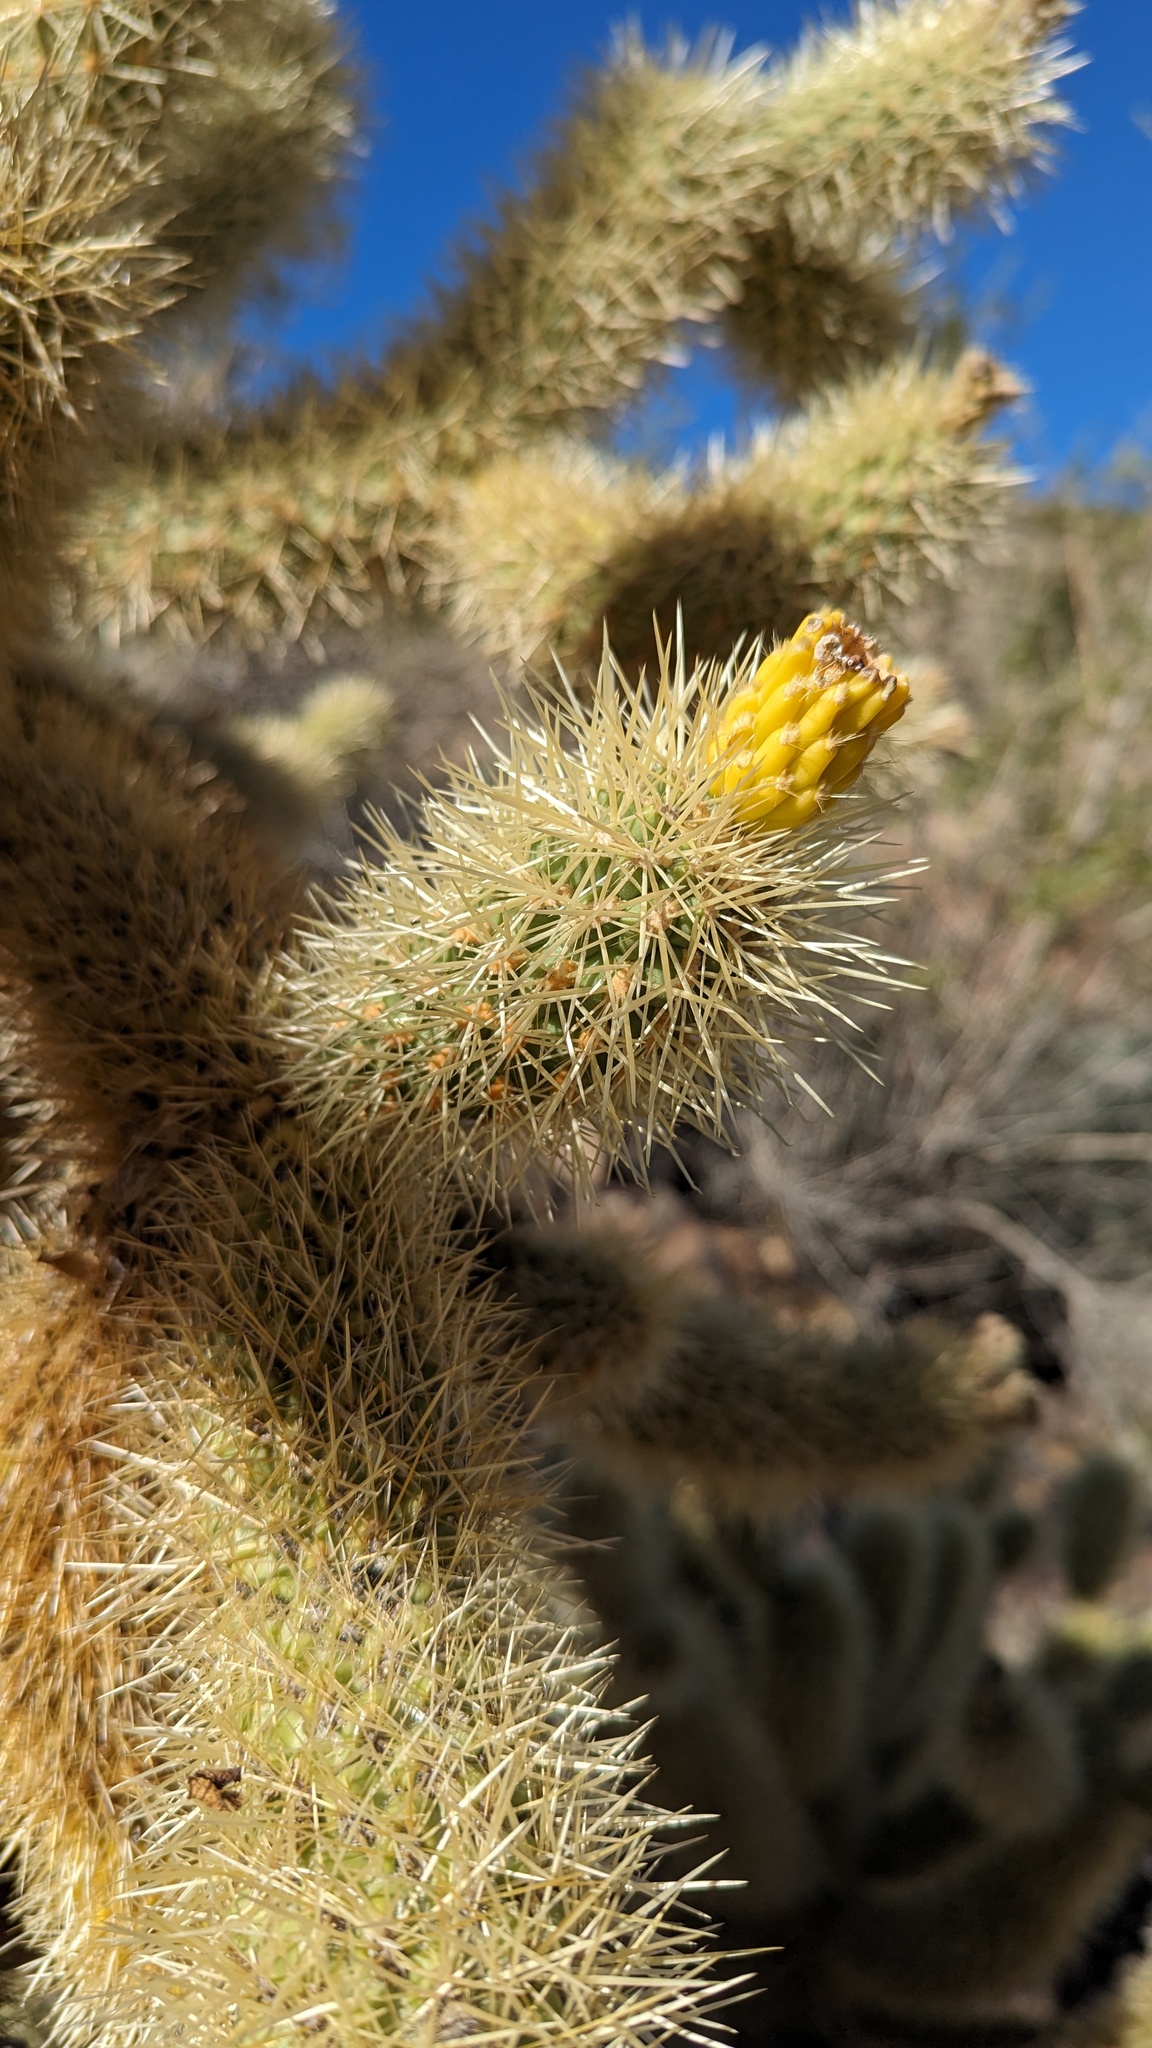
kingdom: Plantae
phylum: Tracheophyta
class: Magnoliopsida
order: Caryophyllales
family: Cactaceae
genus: Cylindropuntia
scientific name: Cylindropuntia fosbergii
